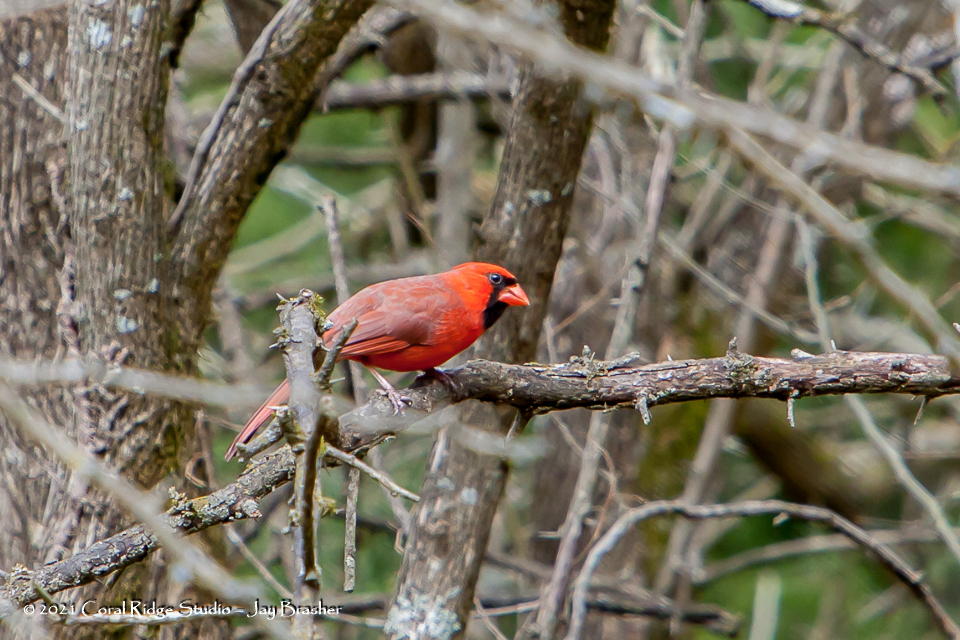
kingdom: Animalia
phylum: Chordata
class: Aves
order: Passeriformes
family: Cardinalidae
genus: Cardinalis
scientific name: Cardinalis cardinalis
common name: Northern cardinal
